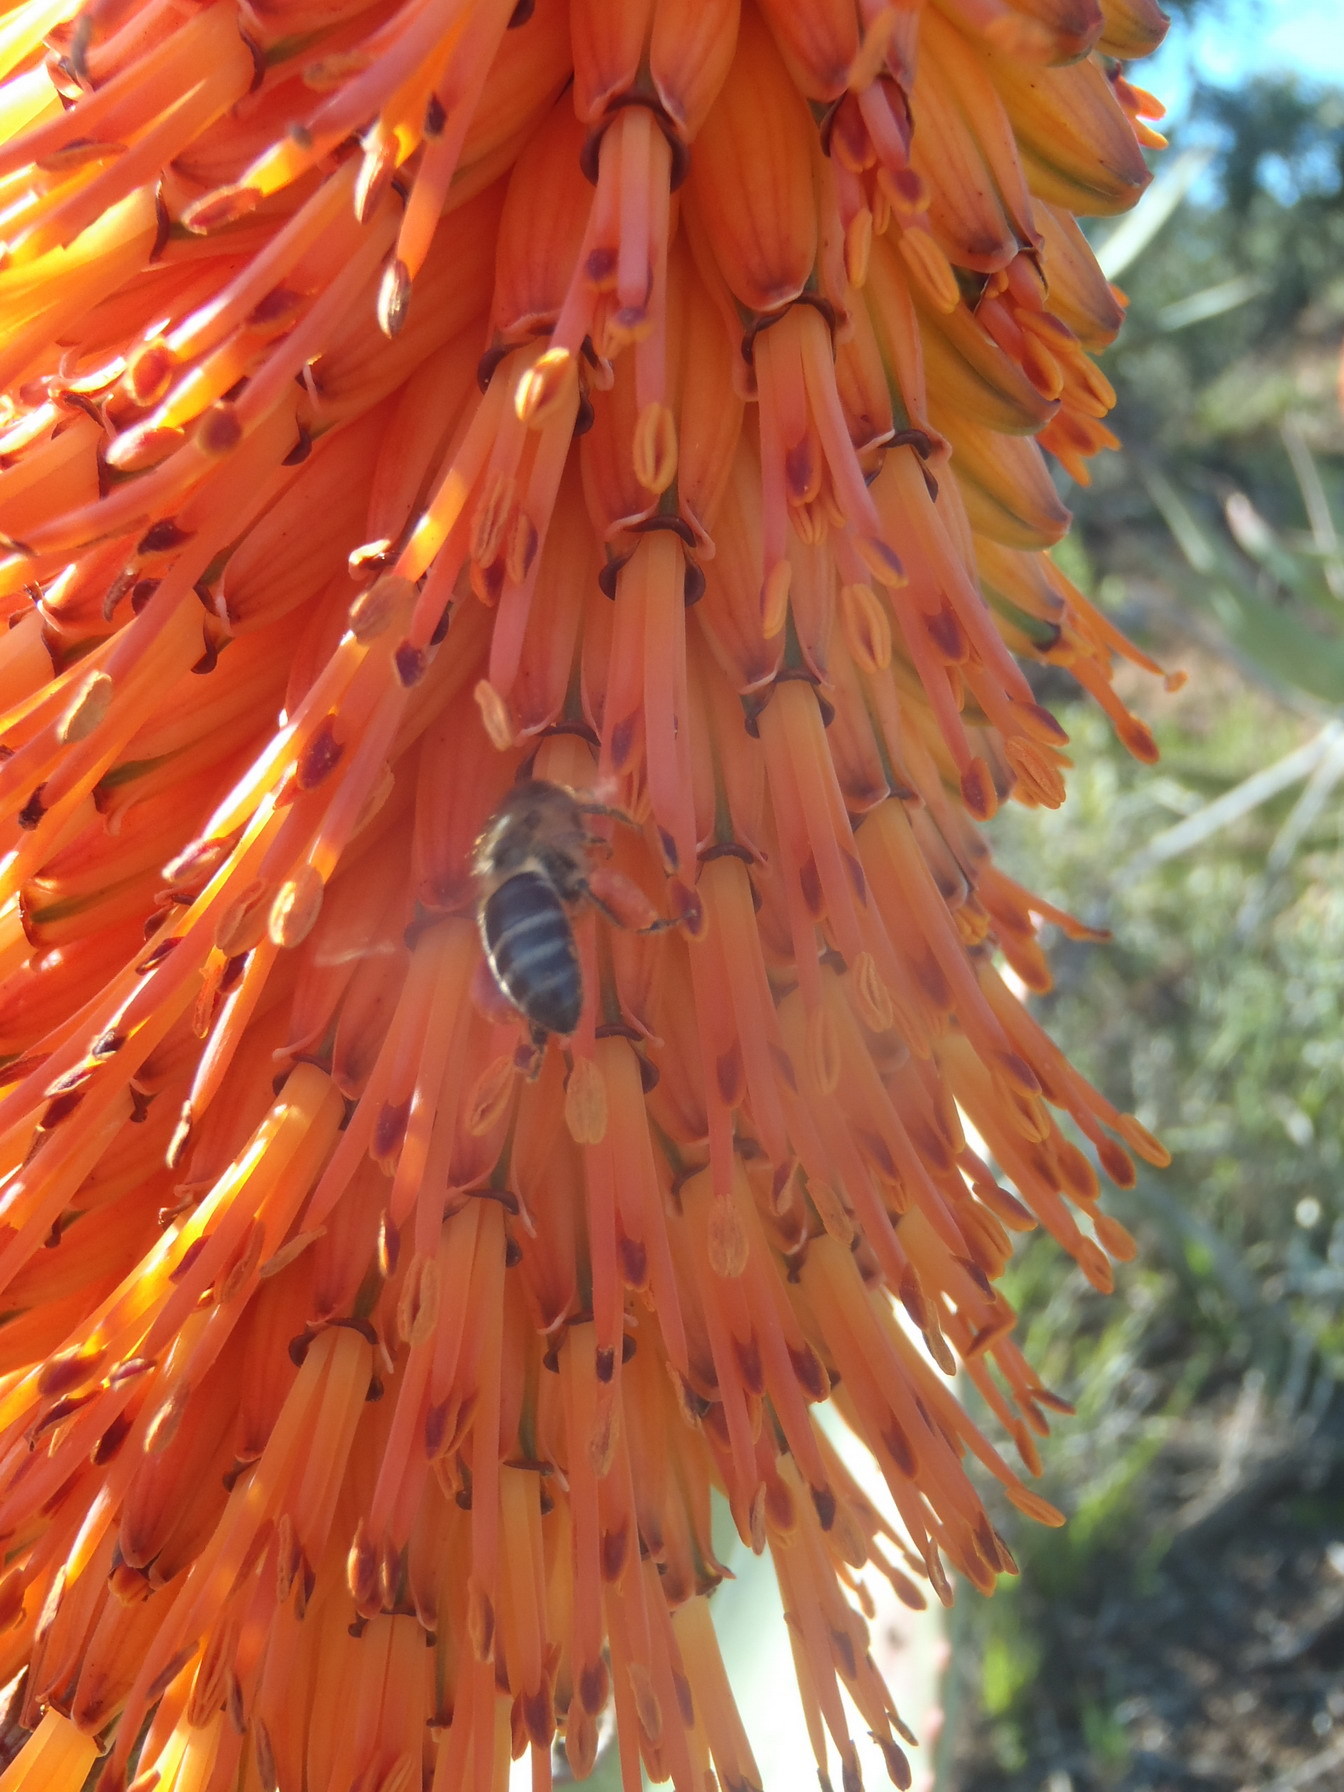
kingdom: Animalia
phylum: Arthropoda
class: Insecta
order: Hymenoptera
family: Apidae
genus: Apis
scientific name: Apis mellifera
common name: Honey bee
